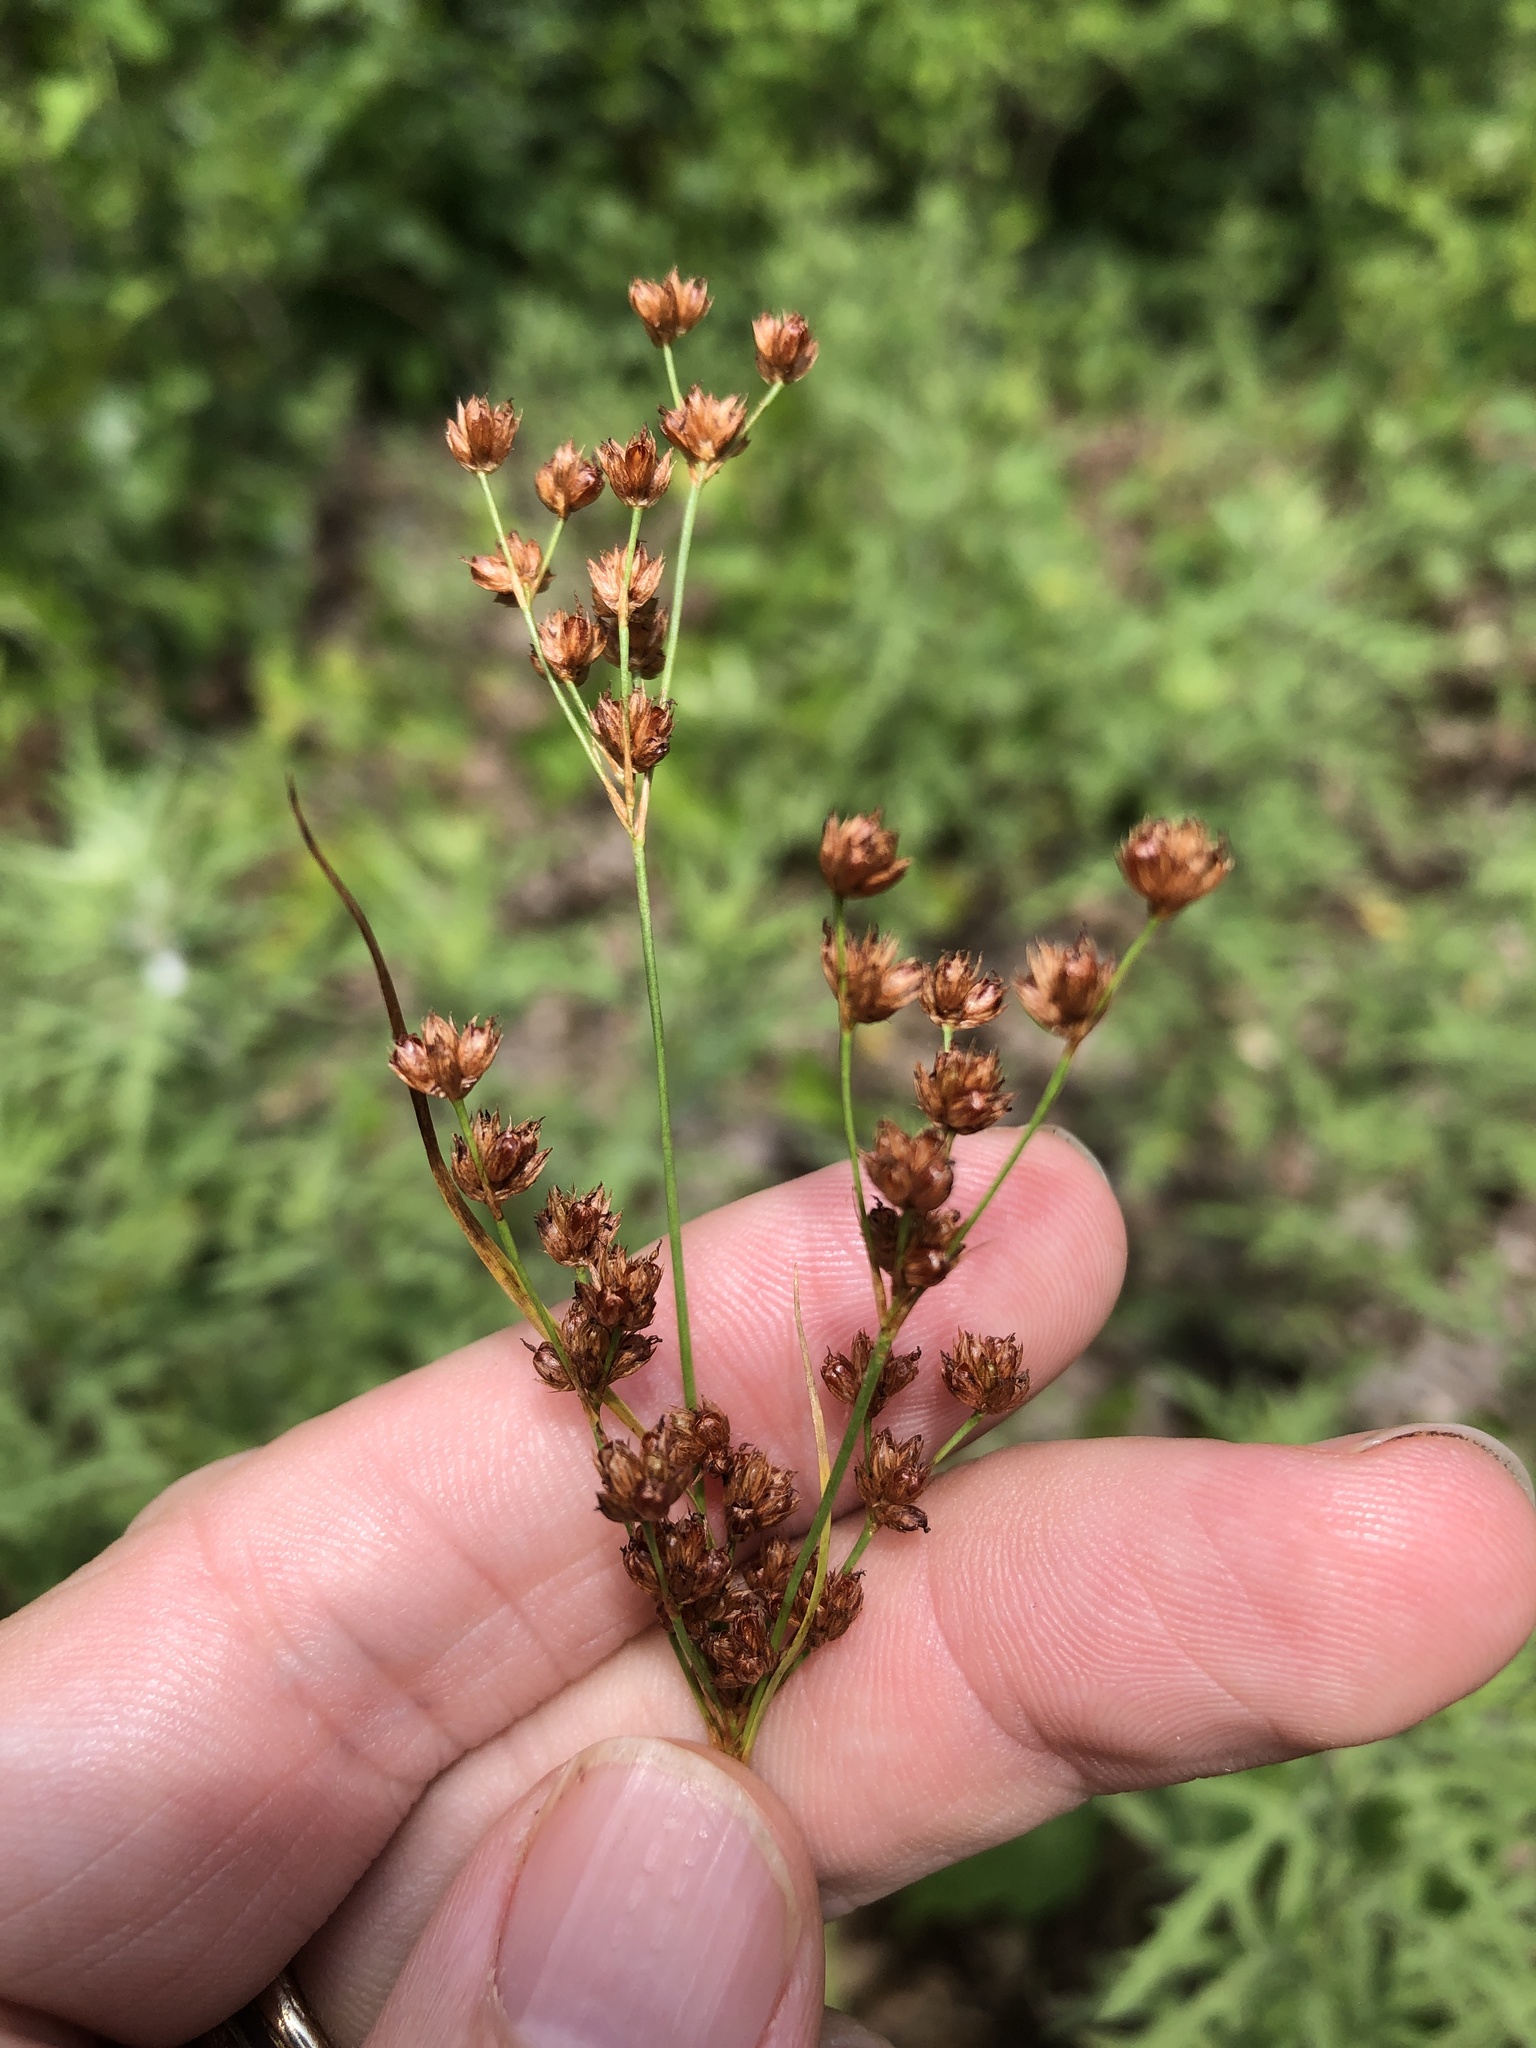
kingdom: Plantae
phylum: Tracheophyta
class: Liliopsida
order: Poales
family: Juncaceae
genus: Juncus
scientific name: Juncus marginatus
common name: Grass-leaf rush
